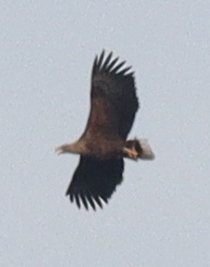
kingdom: Animalia
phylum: Chordata
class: Aves
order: Accipitriformes
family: Accipitridae
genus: Haliaeetus
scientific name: Haliaeetus albicilla
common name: White-tailed eagle
